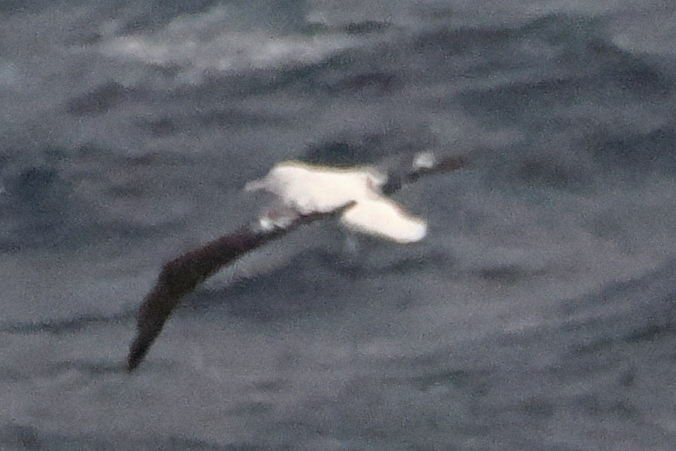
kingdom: Animalia
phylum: Chordata
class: Aves
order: Procellariiformes
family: Diomedeidae
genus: Diomedea
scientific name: Diomedea epomophora
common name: Southern royal albatross
